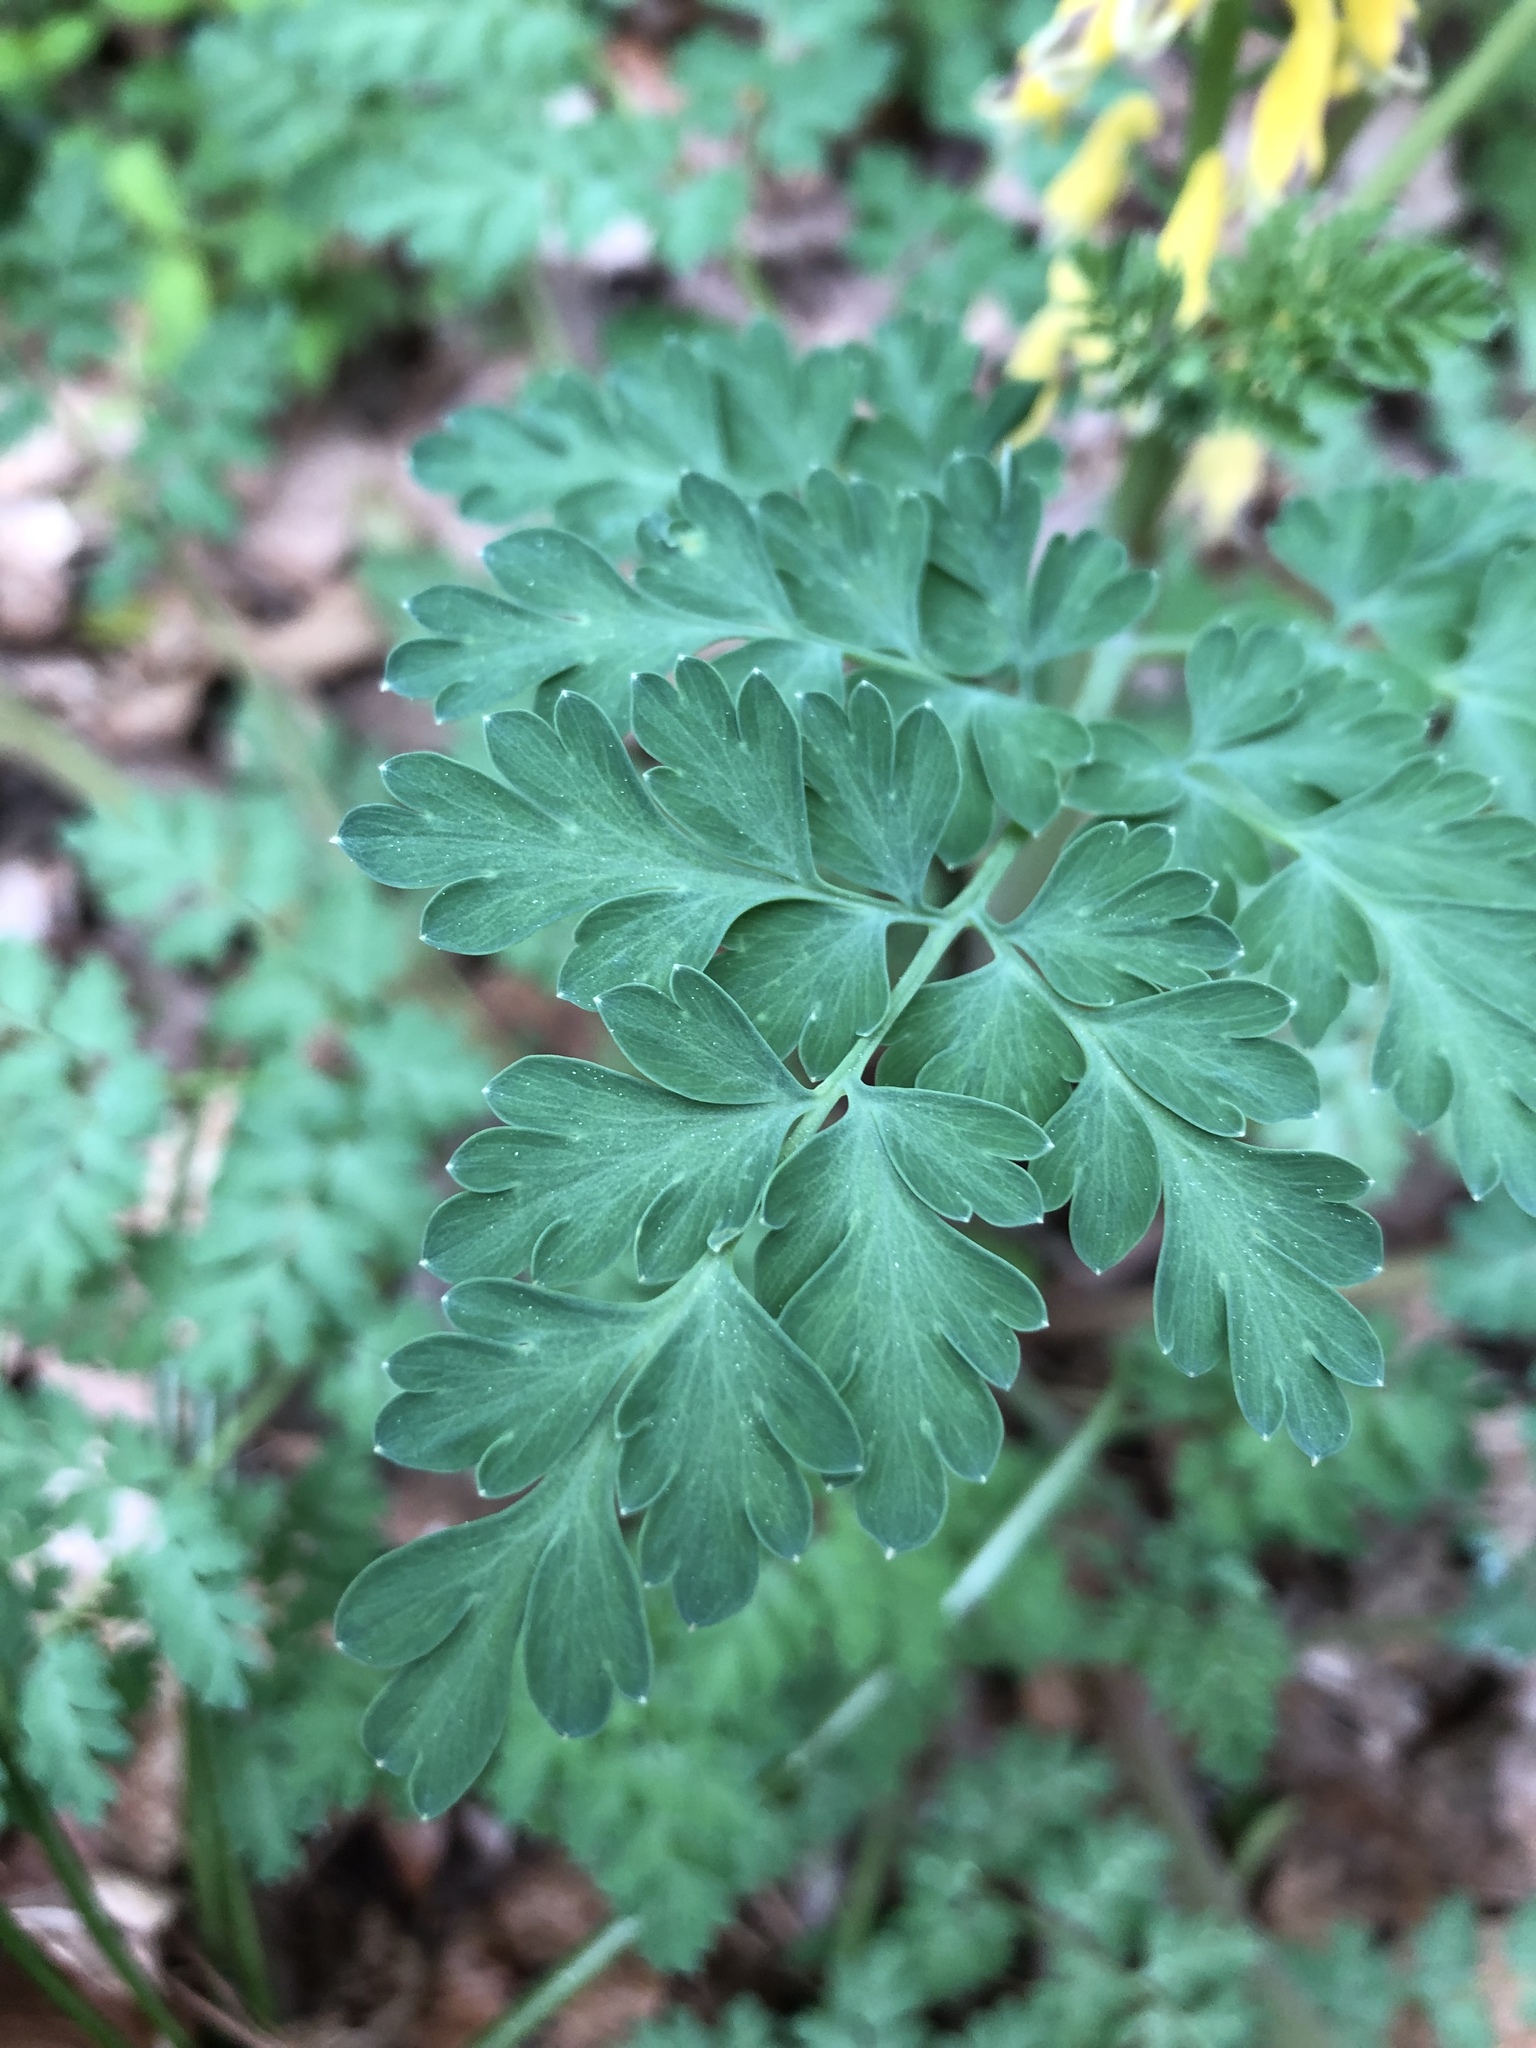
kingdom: Plantae
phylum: Tracheophyta
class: Magnoliopsida
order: Ranunculales
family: Papaveraceae
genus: Corydalis
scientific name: Corydalis heterocarpa
